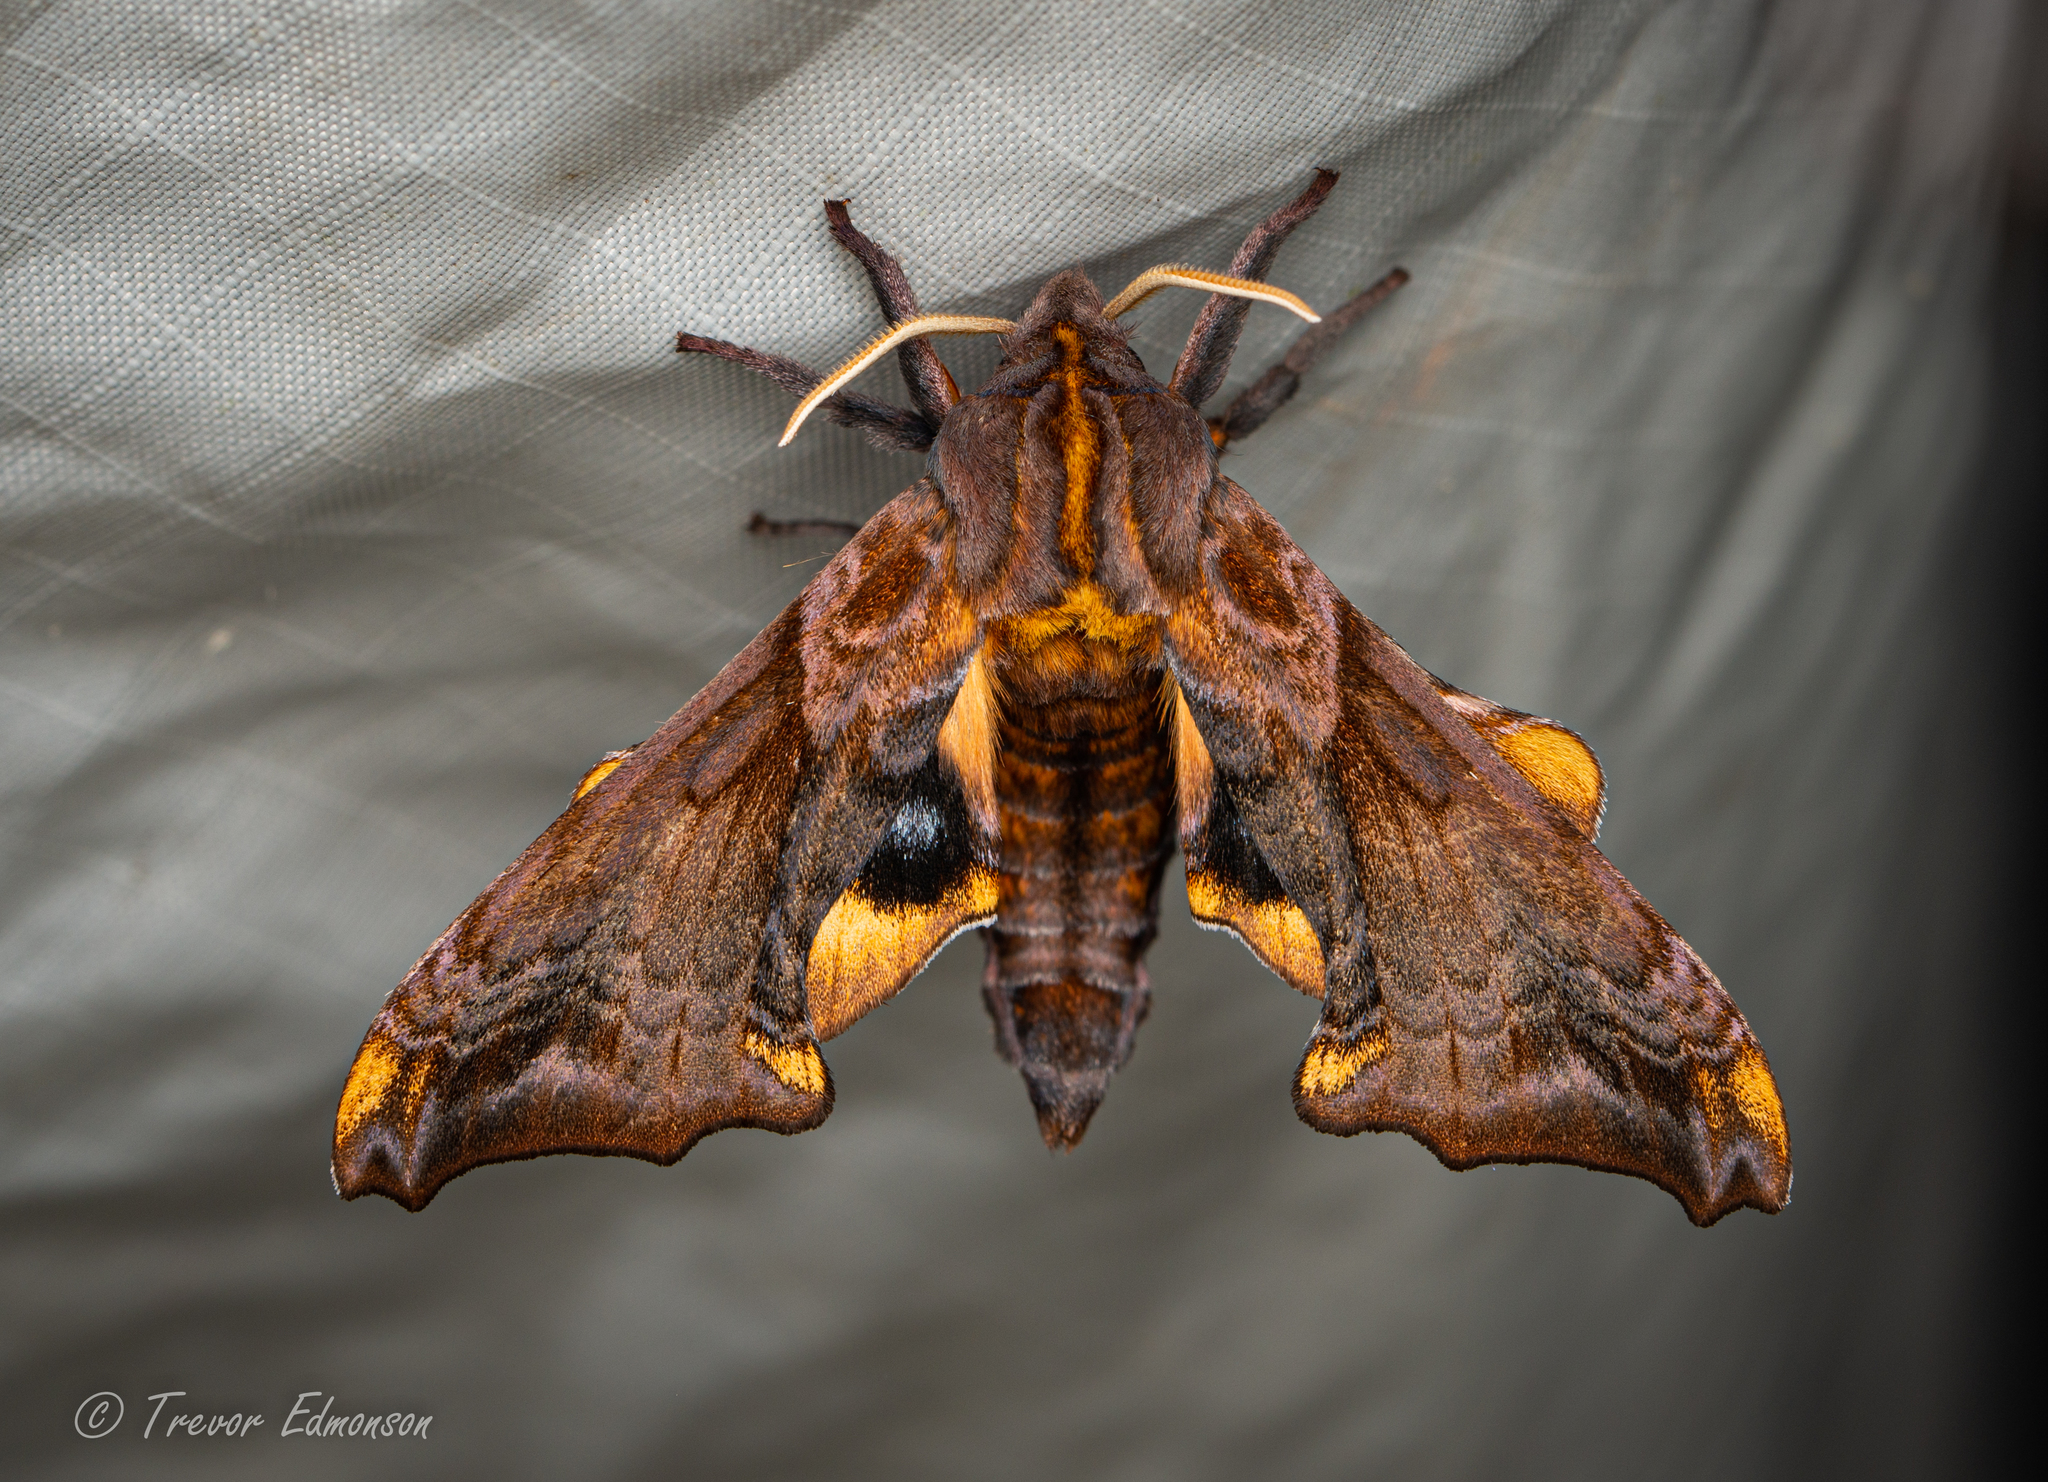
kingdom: Animalia
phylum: Arthropoda
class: Insecta
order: Lepidoptera
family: Sphingidae
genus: Paonias
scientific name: Paonias myops
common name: Small-eyed sphinx
